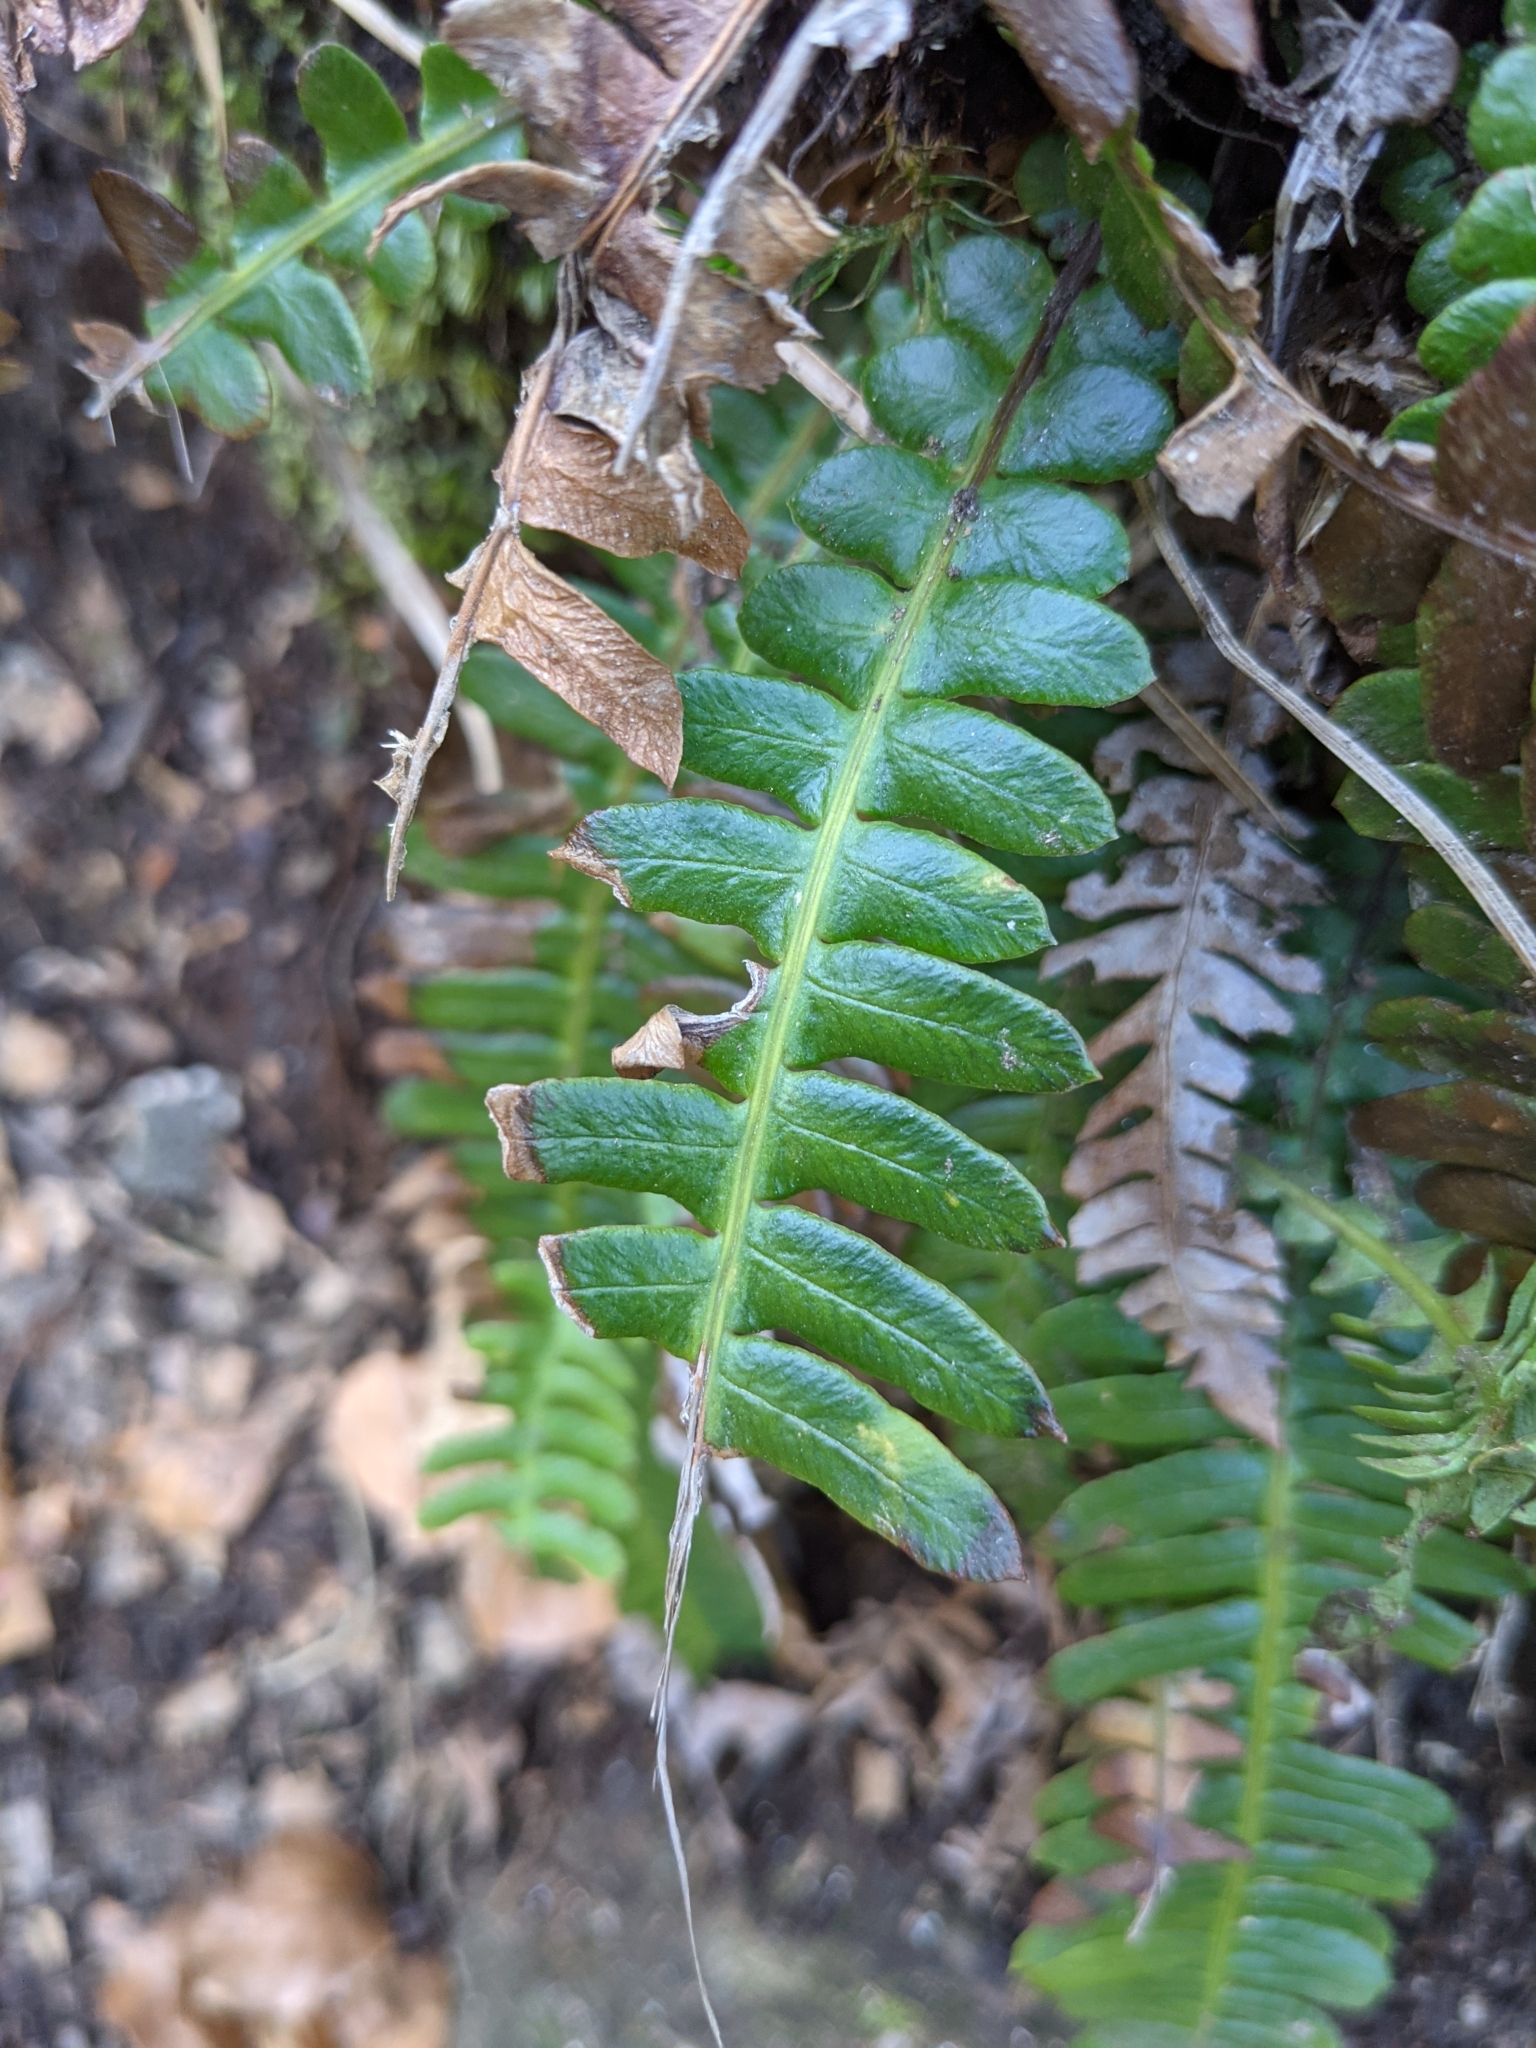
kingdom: Plantae
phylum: Tracheophyta
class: Polypodiopsida
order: Polypodiales
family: Blechnaceae
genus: Struthiopteris
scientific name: Struthiopteris spicant
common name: Deer fern
